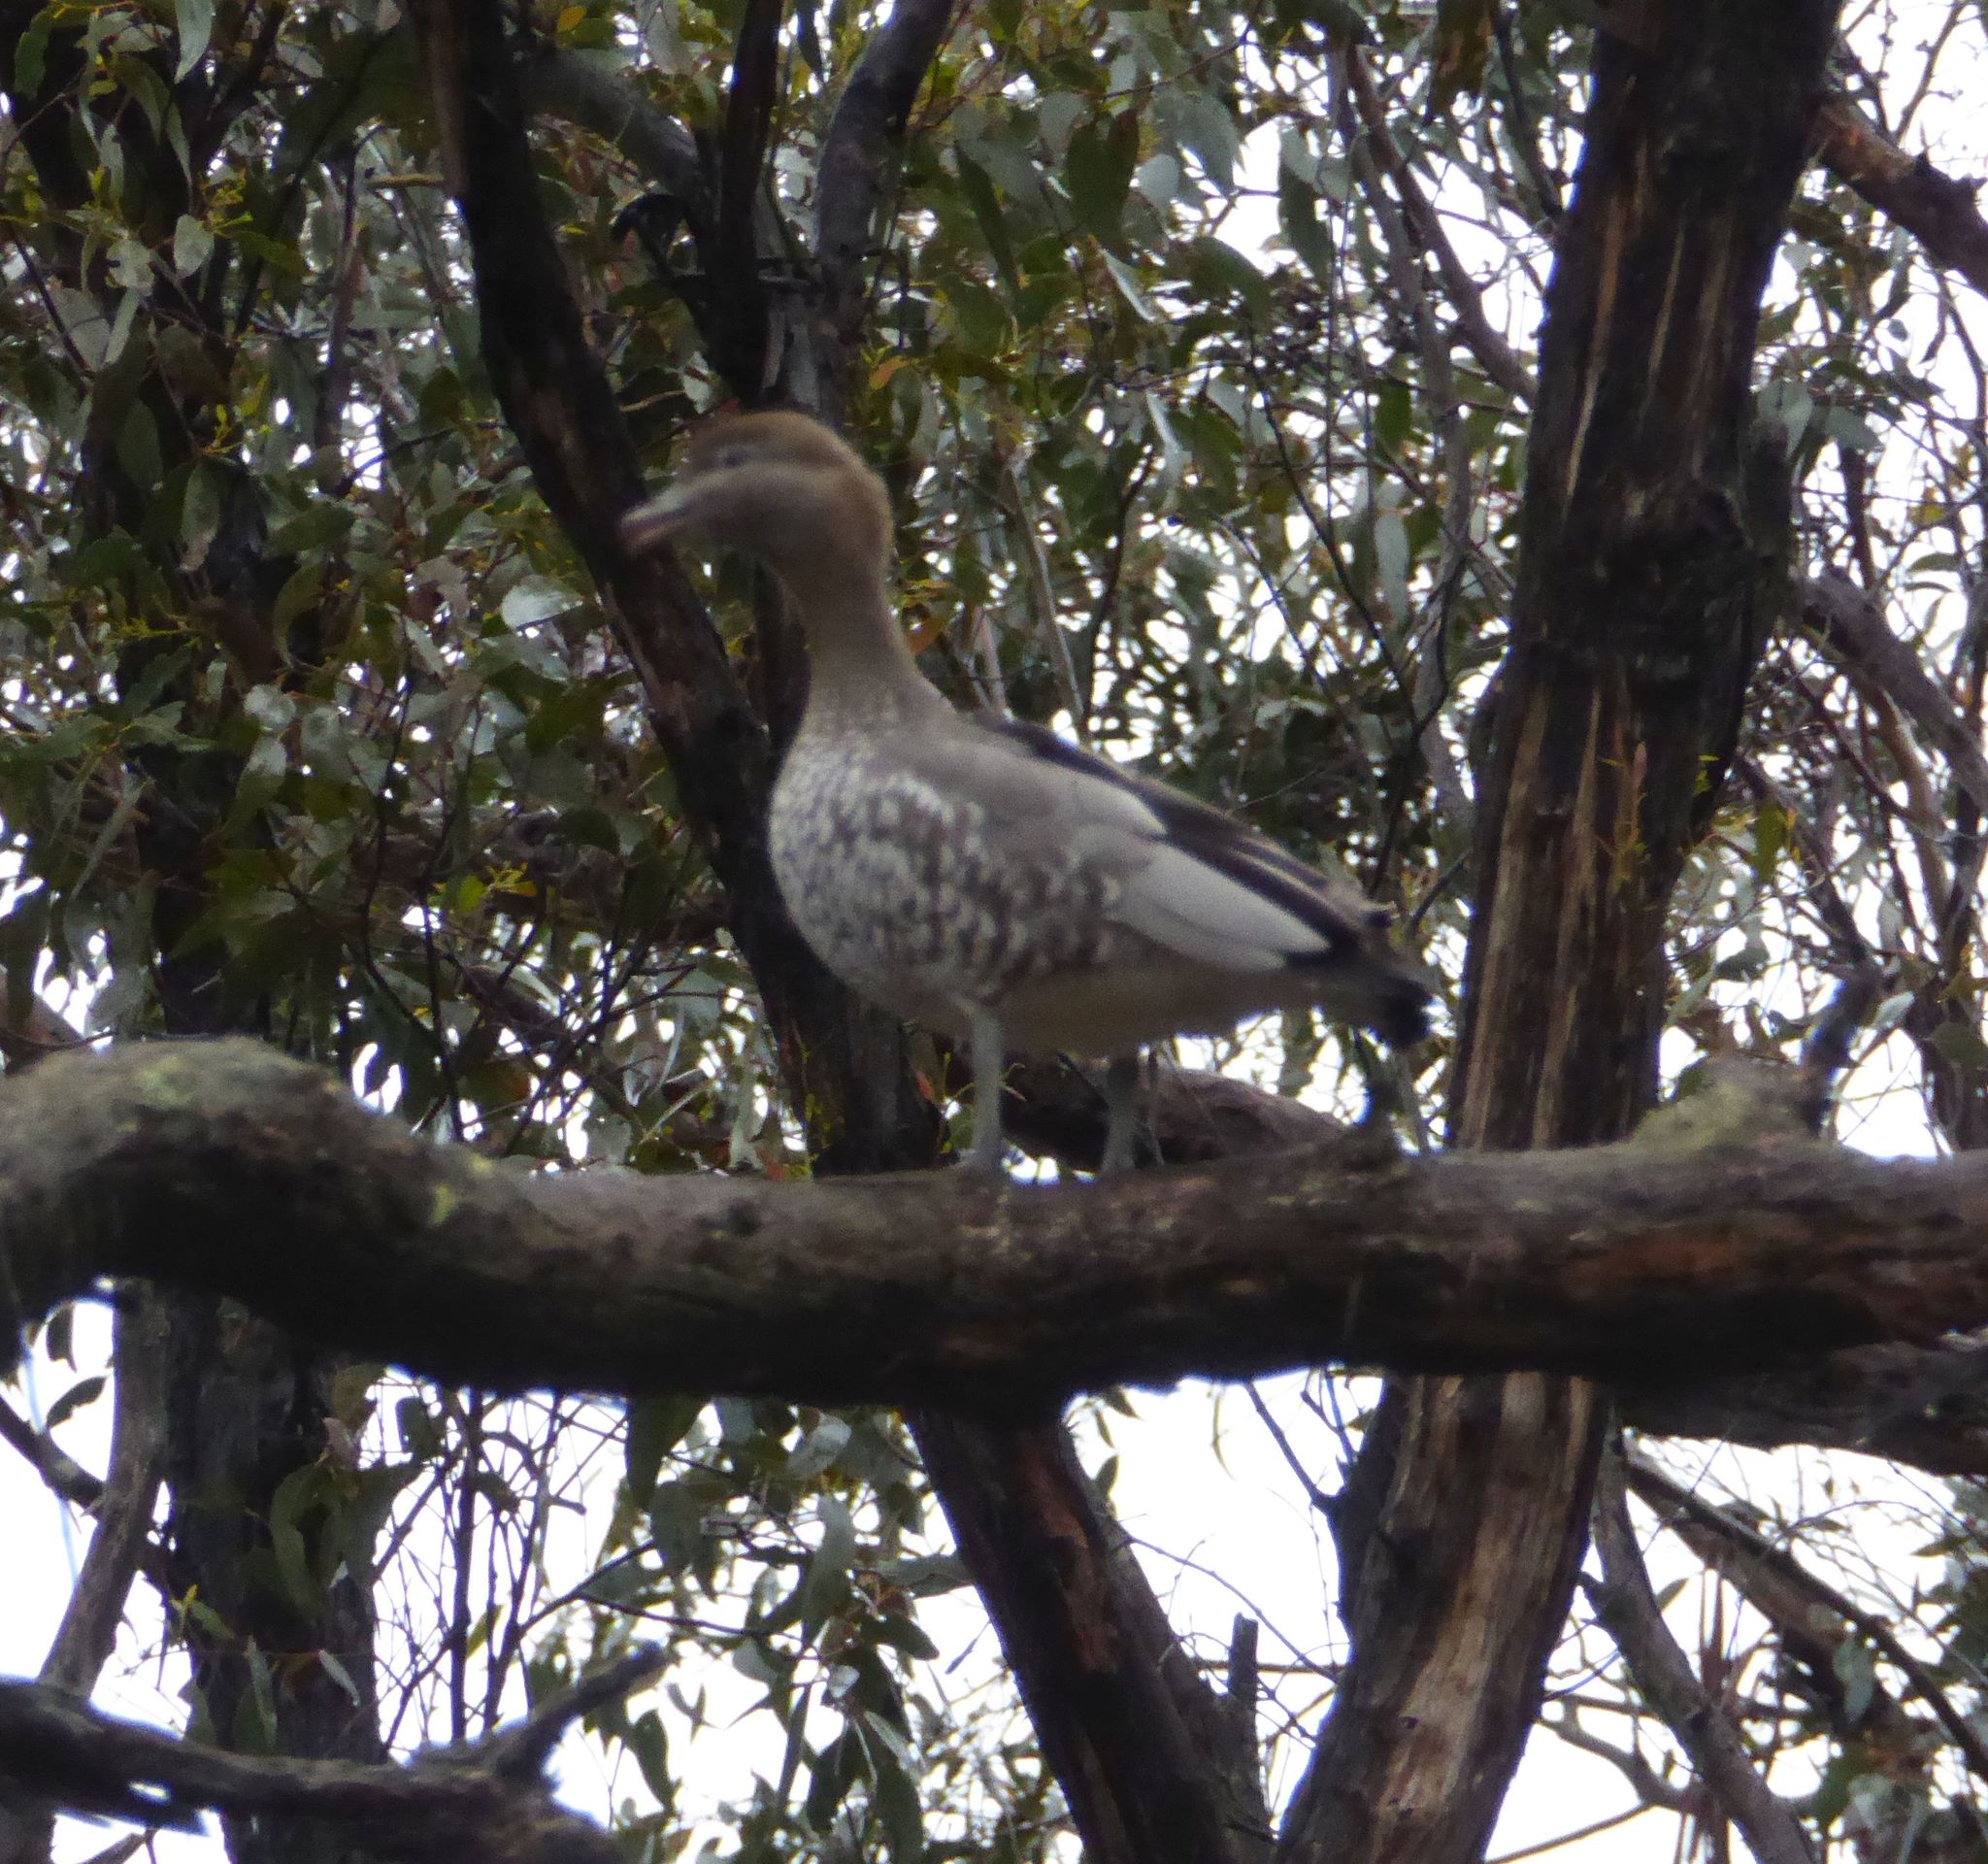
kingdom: Animalia
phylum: Chordata
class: Aves
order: Anseriformes
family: Anatidae
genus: Chenonetta
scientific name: Chenonetta jubata
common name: Maned duck
